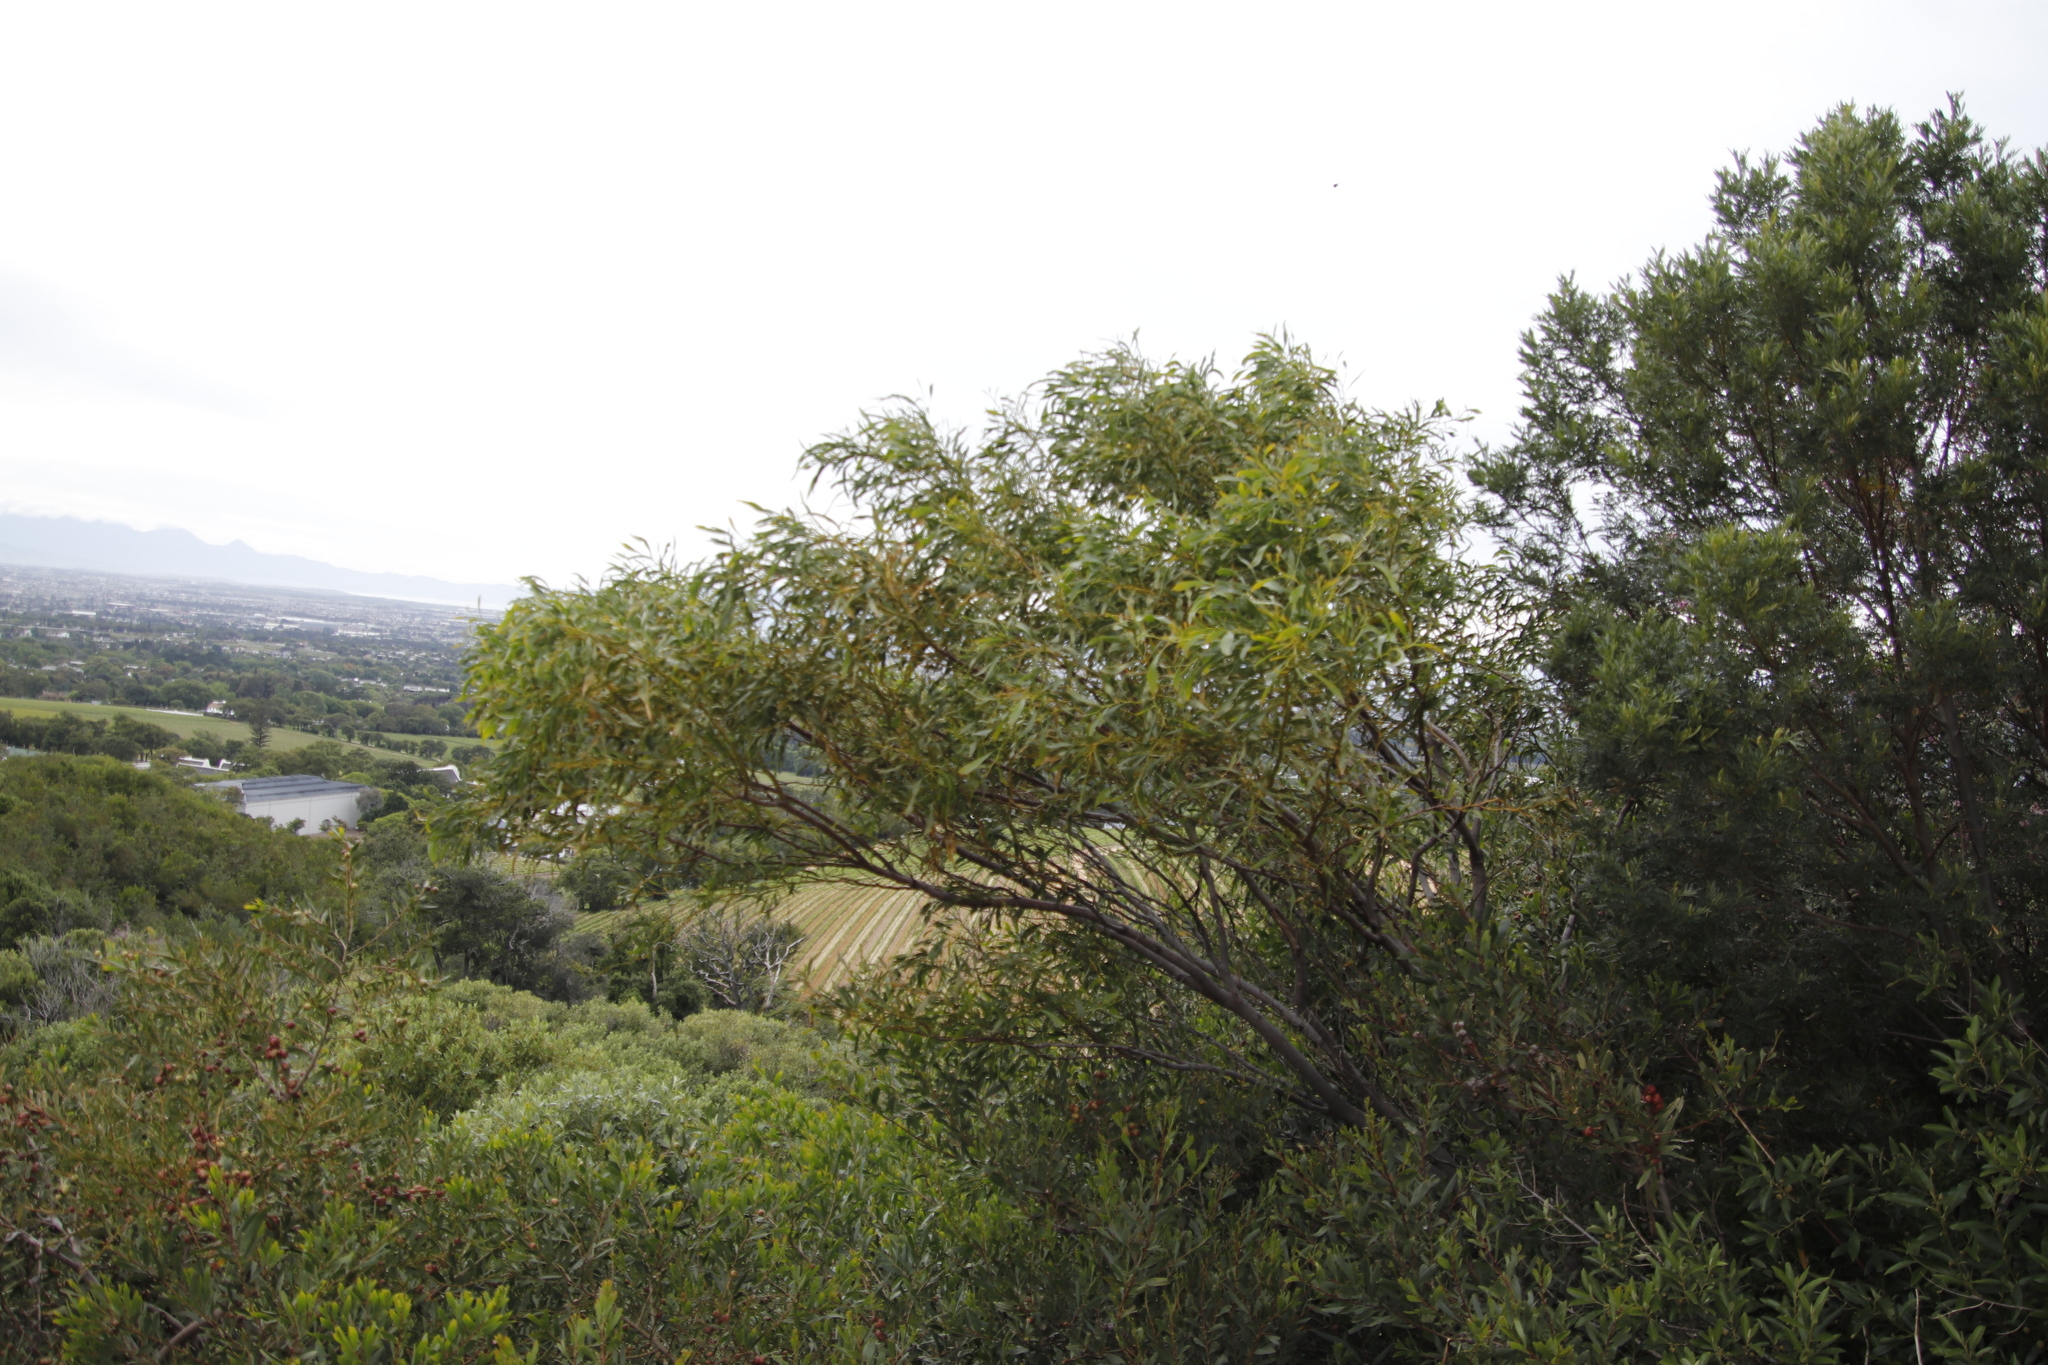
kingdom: Plantae
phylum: Tracheophyta
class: Magnoliopsida
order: Fabales
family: Fabaceae
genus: Acacia
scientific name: Acacia saligna
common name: Orange wattle
